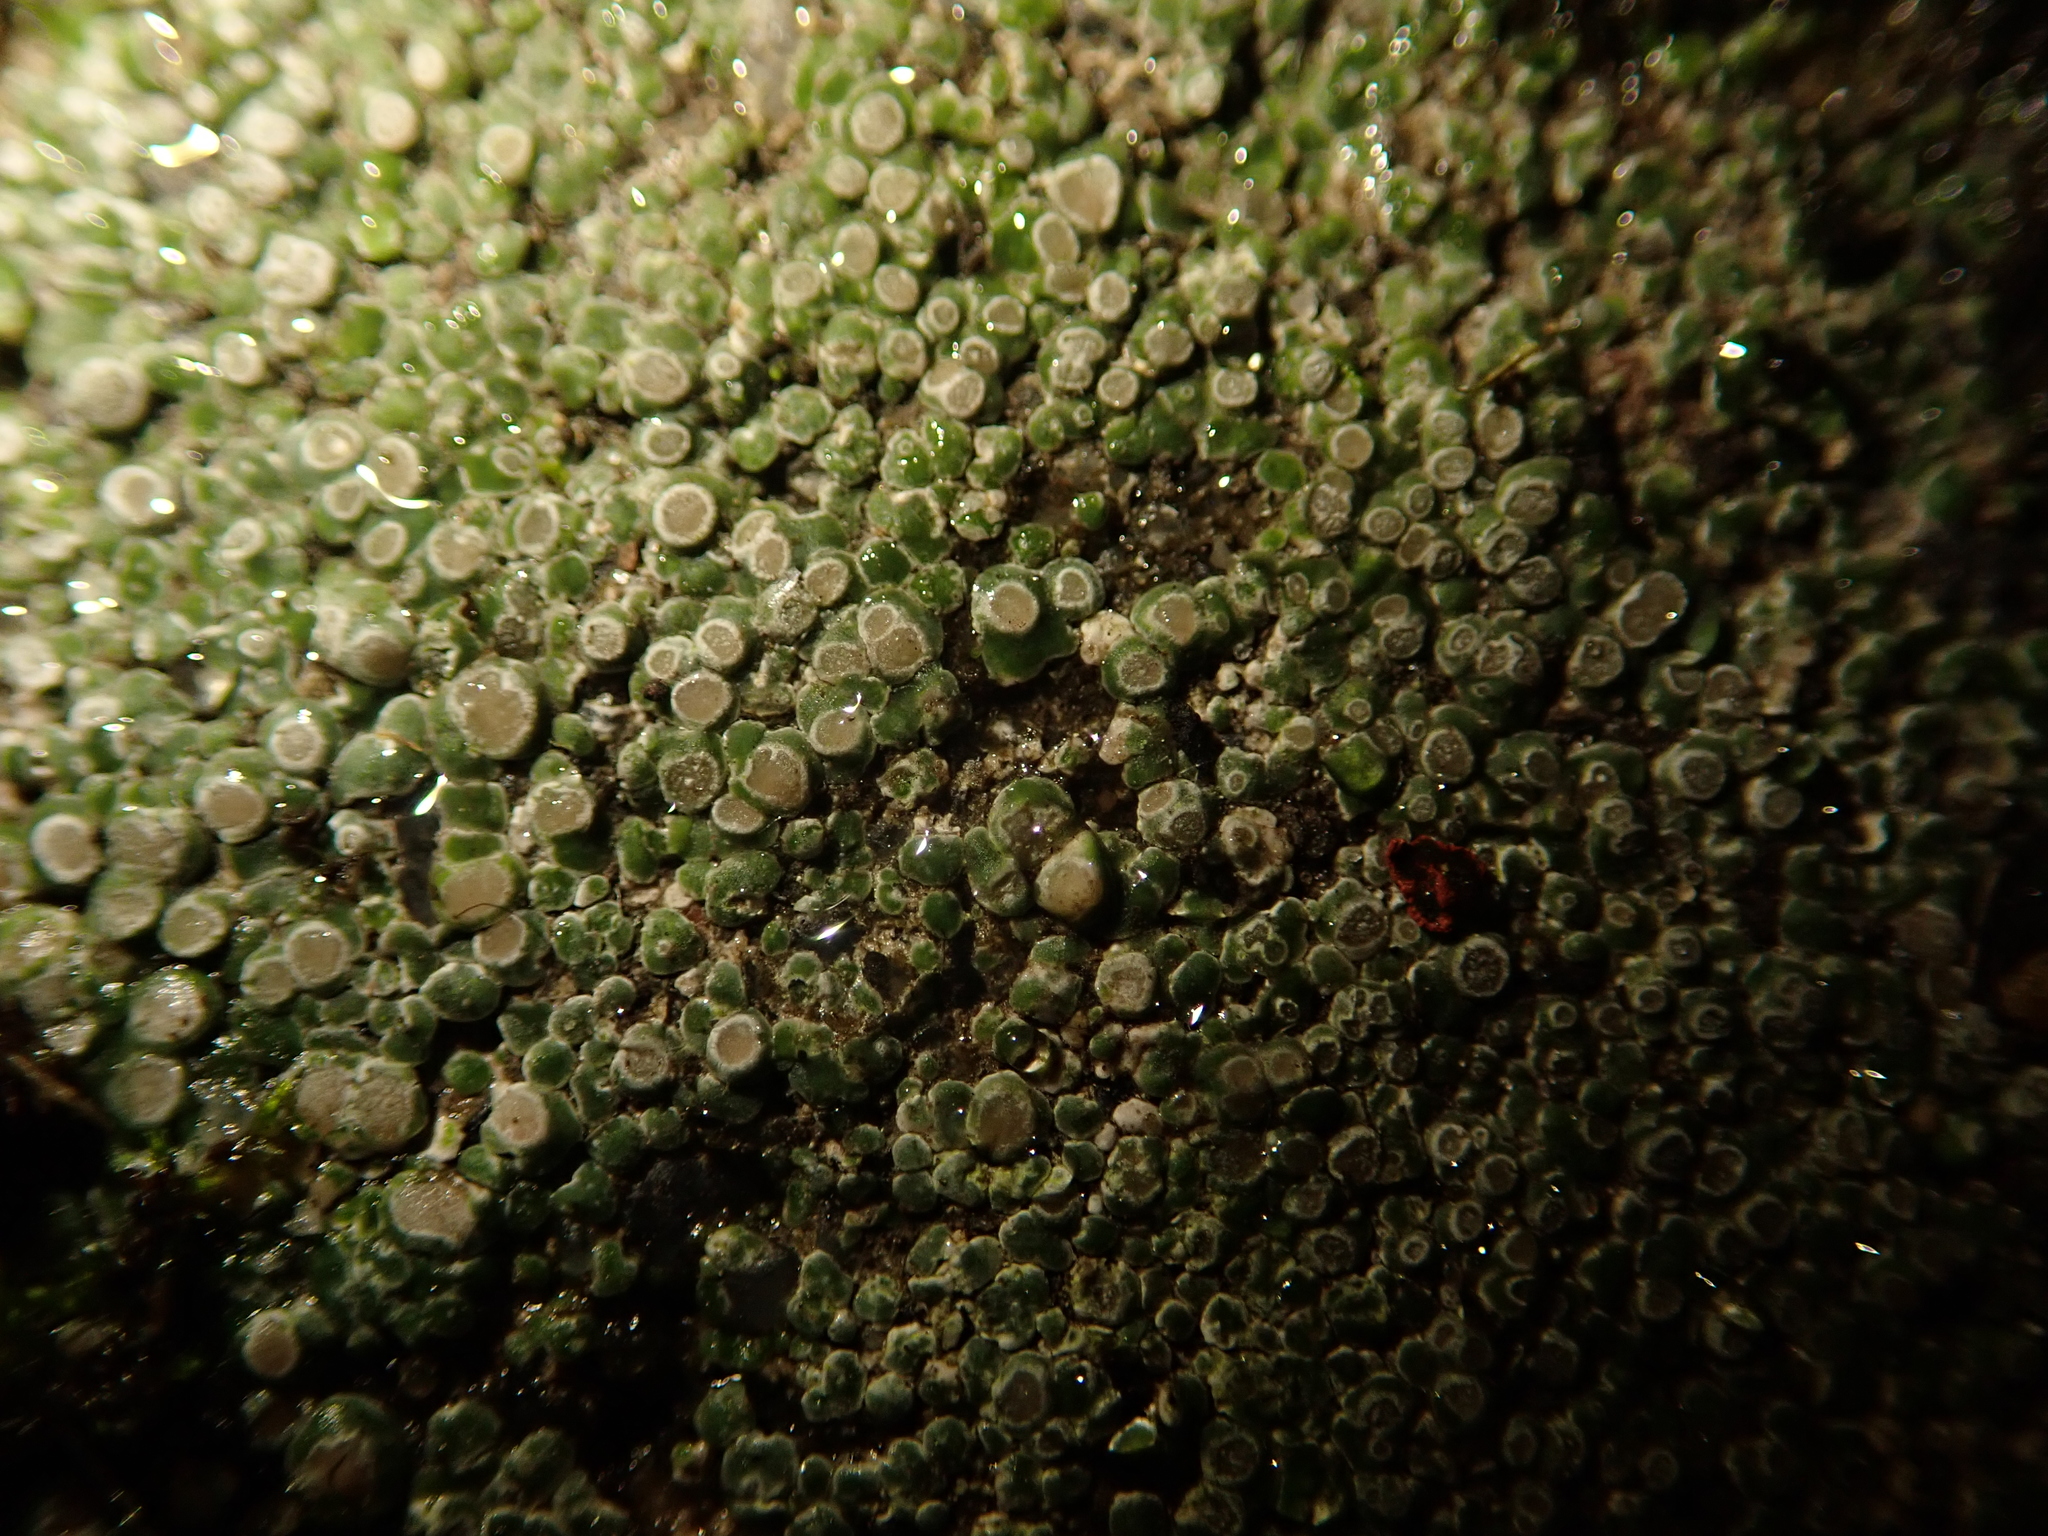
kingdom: Fungi
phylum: Ascomycota
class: Lecanoromycetes
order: Pertusariales
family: Megasporaceae
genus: Circinaria
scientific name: Circinaria contorta
